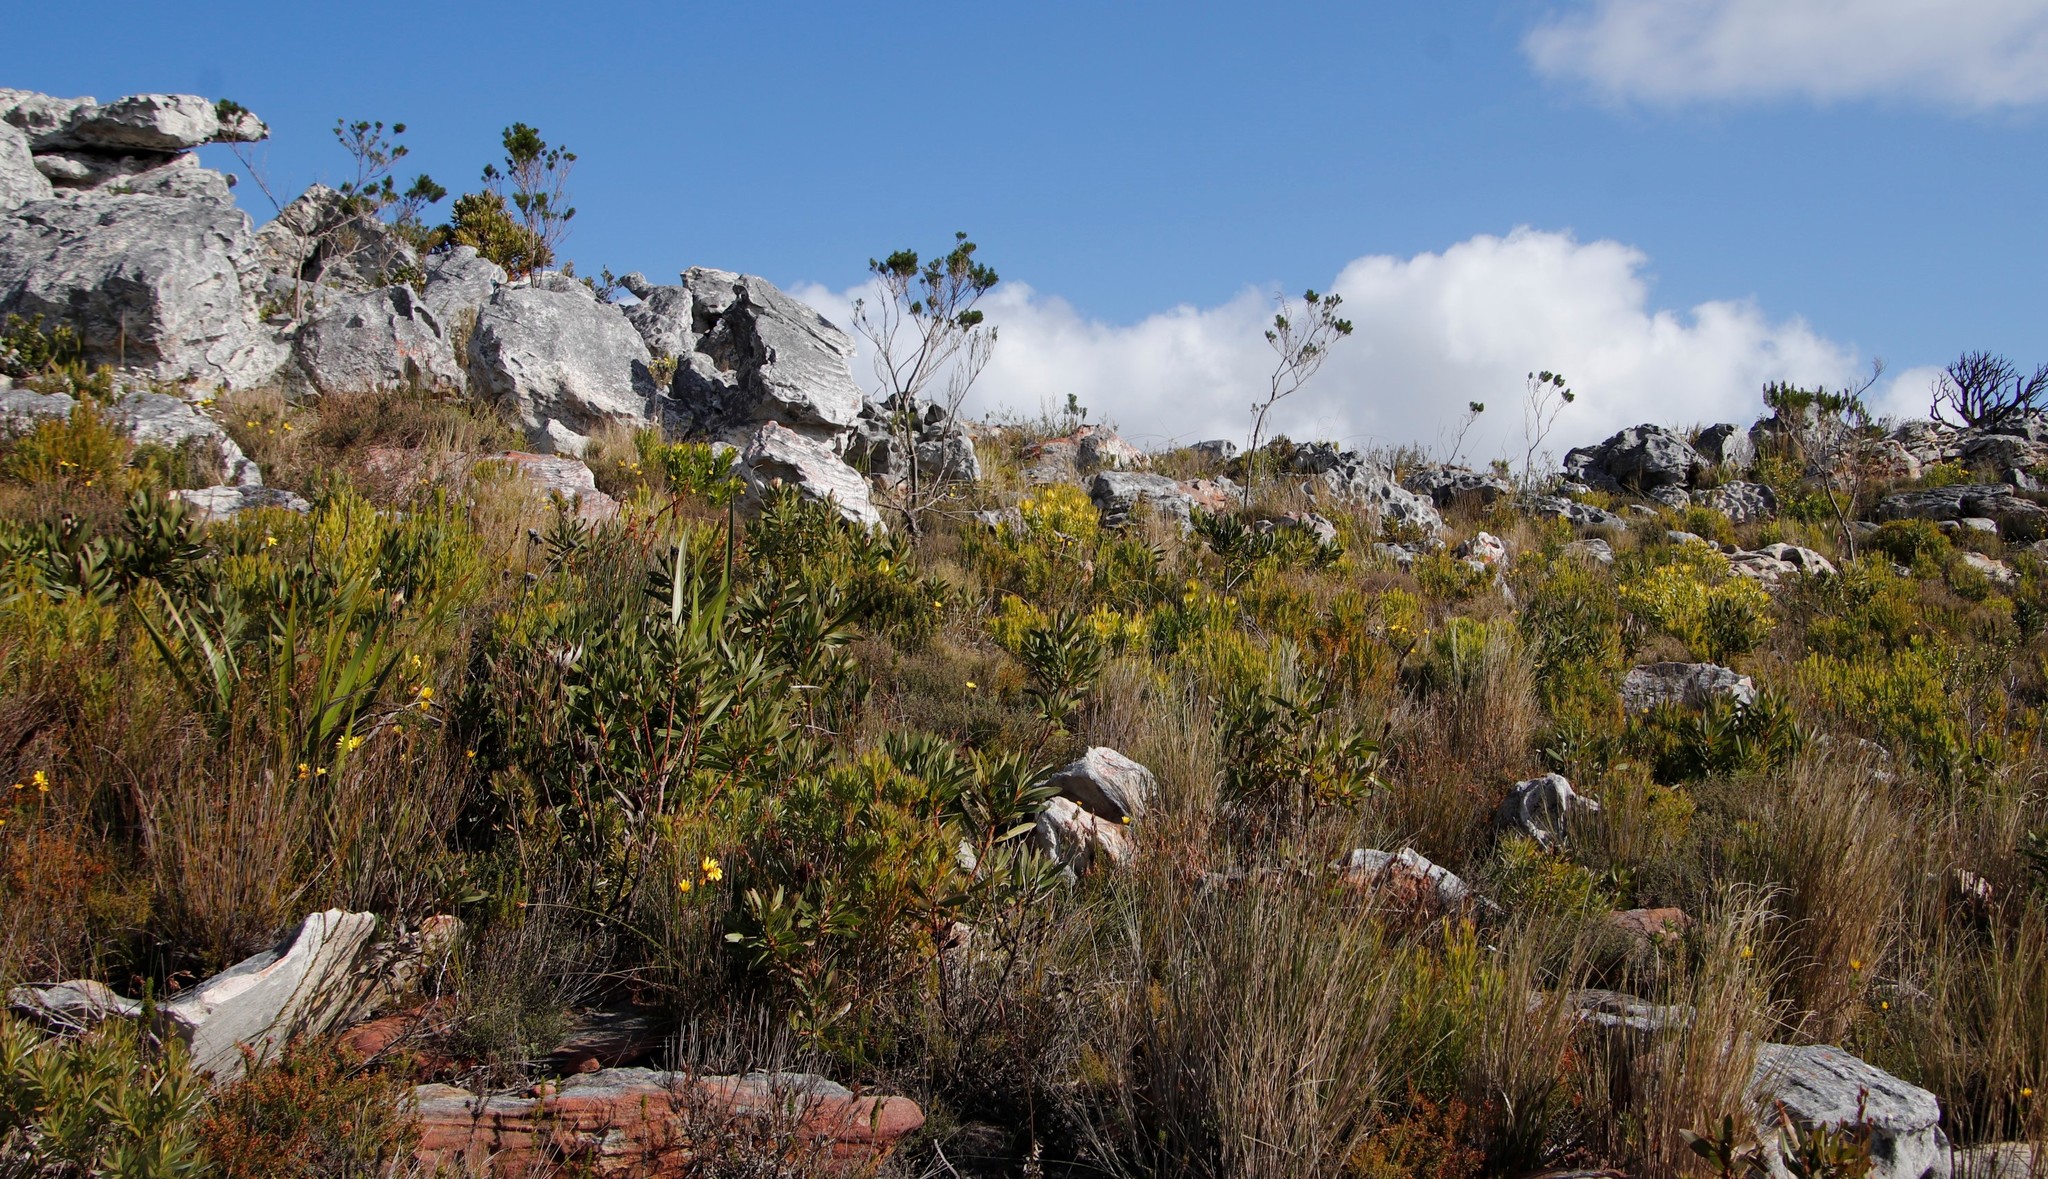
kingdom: Plantae
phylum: Tracheophyta
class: Magnoliopsida
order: Fabales
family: Fabaceae
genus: Psoralea
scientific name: Psoralea pinnata
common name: African scurfpea
